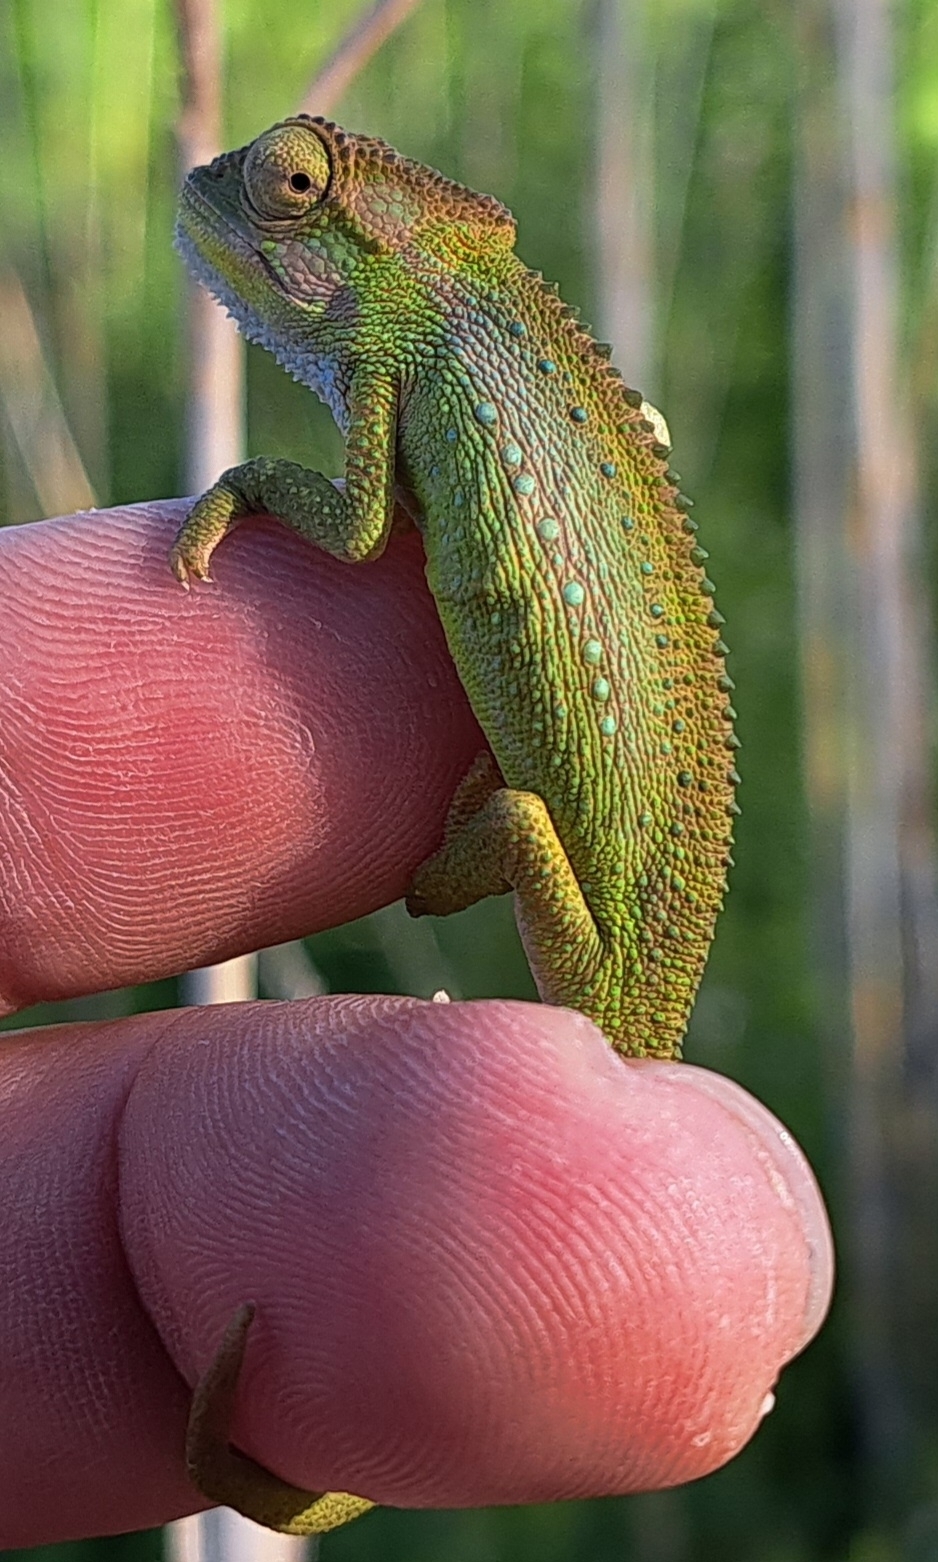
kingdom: Animalia
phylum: Chordata
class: Squamata
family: Chamaeleonidae
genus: Bradypodion
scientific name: Bradypodion pumilum
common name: Cape dwarf chameleon
